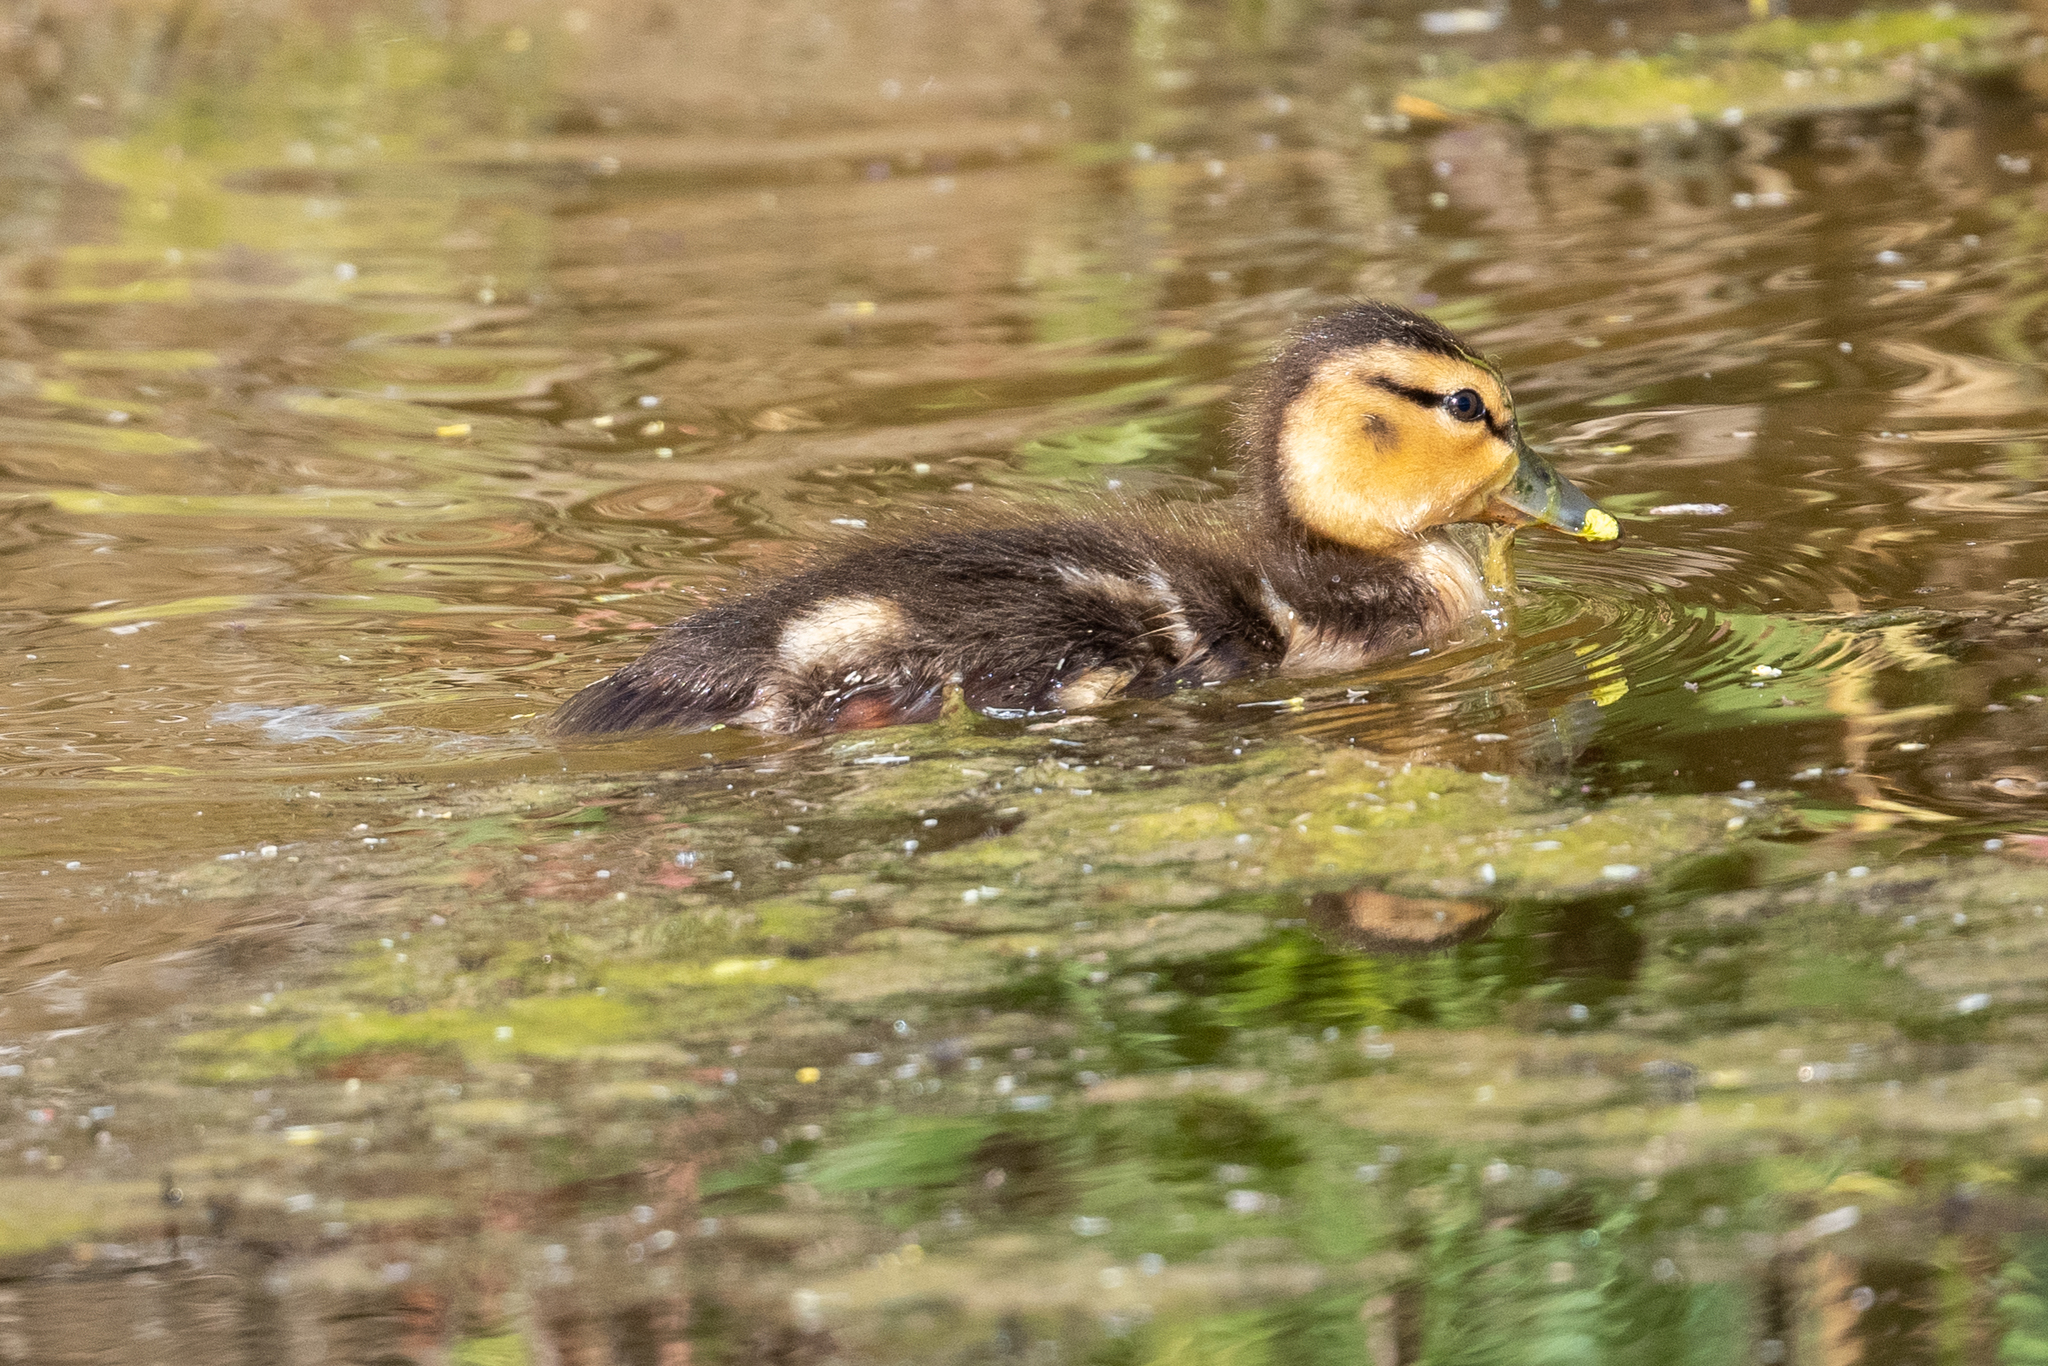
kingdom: Animalia
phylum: Chordata
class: Aves
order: Anseriformes
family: Anatidae
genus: Anas
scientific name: Anas platyrhynchos
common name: Mallard
